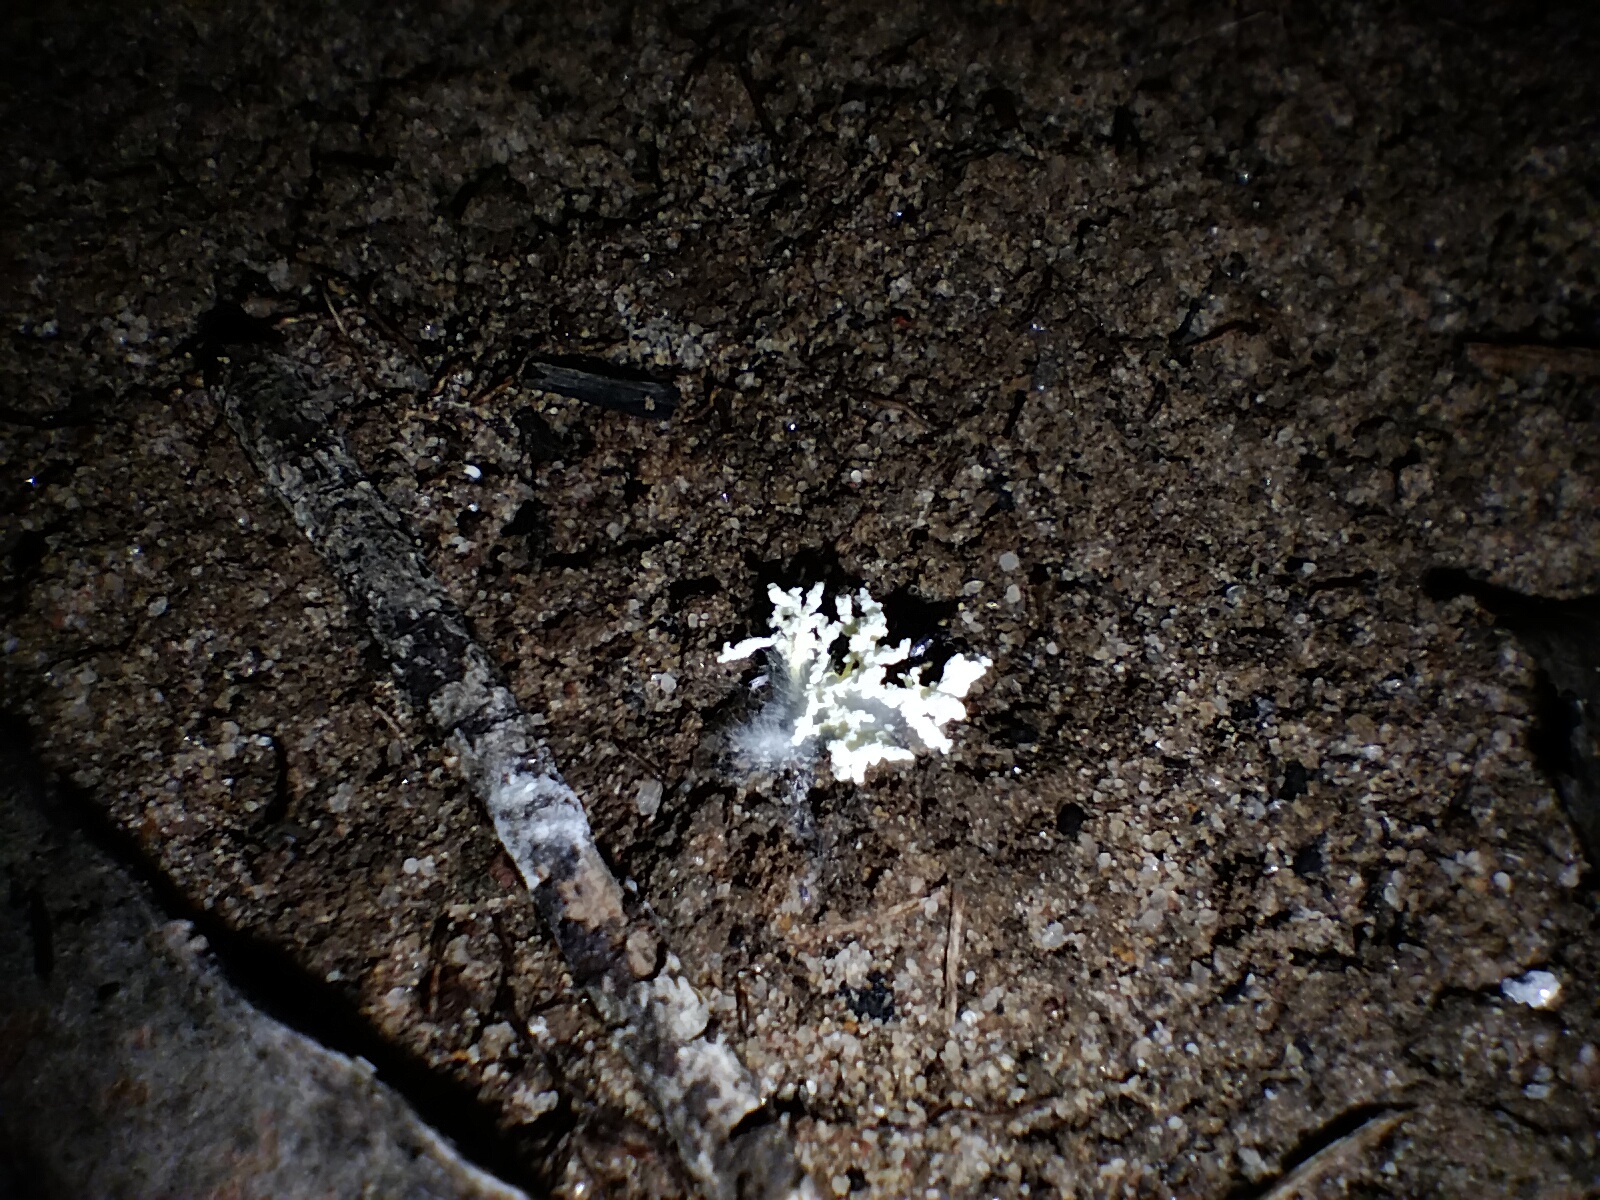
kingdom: Fungi
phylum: Ascomycota
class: Sordariomycetes
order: Hypocreales
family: Cordycipitaceae
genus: Cordyceps
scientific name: Cordyceps tenuipes
